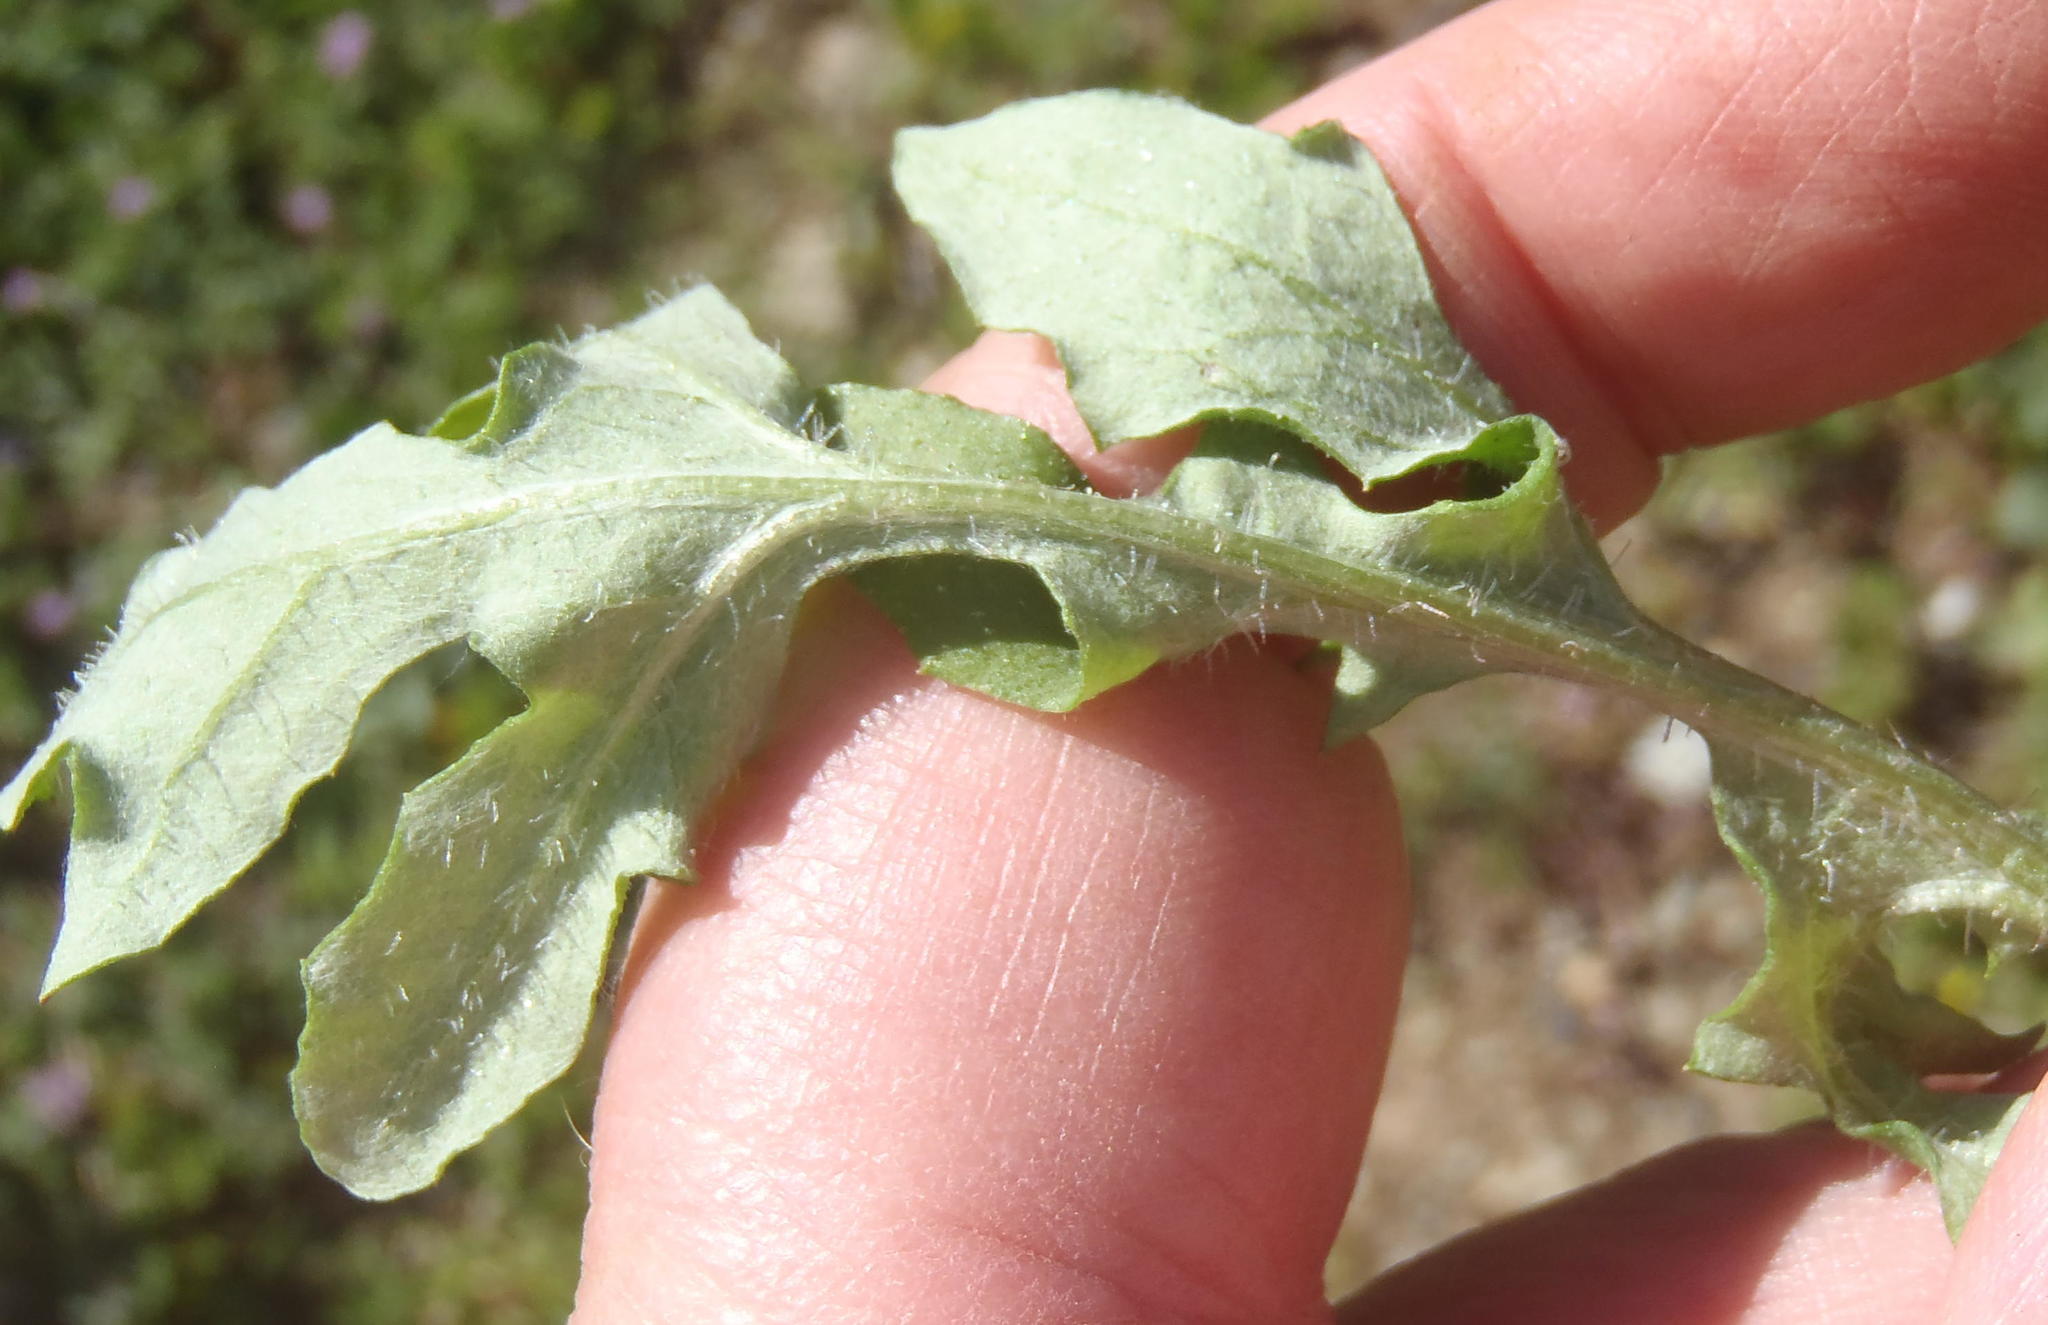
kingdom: Plantae
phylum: Tracheophyta
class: Magnoliopsida
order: Asterales
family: Asteraceae
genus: Arctotis
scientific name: Arctotis dregei
